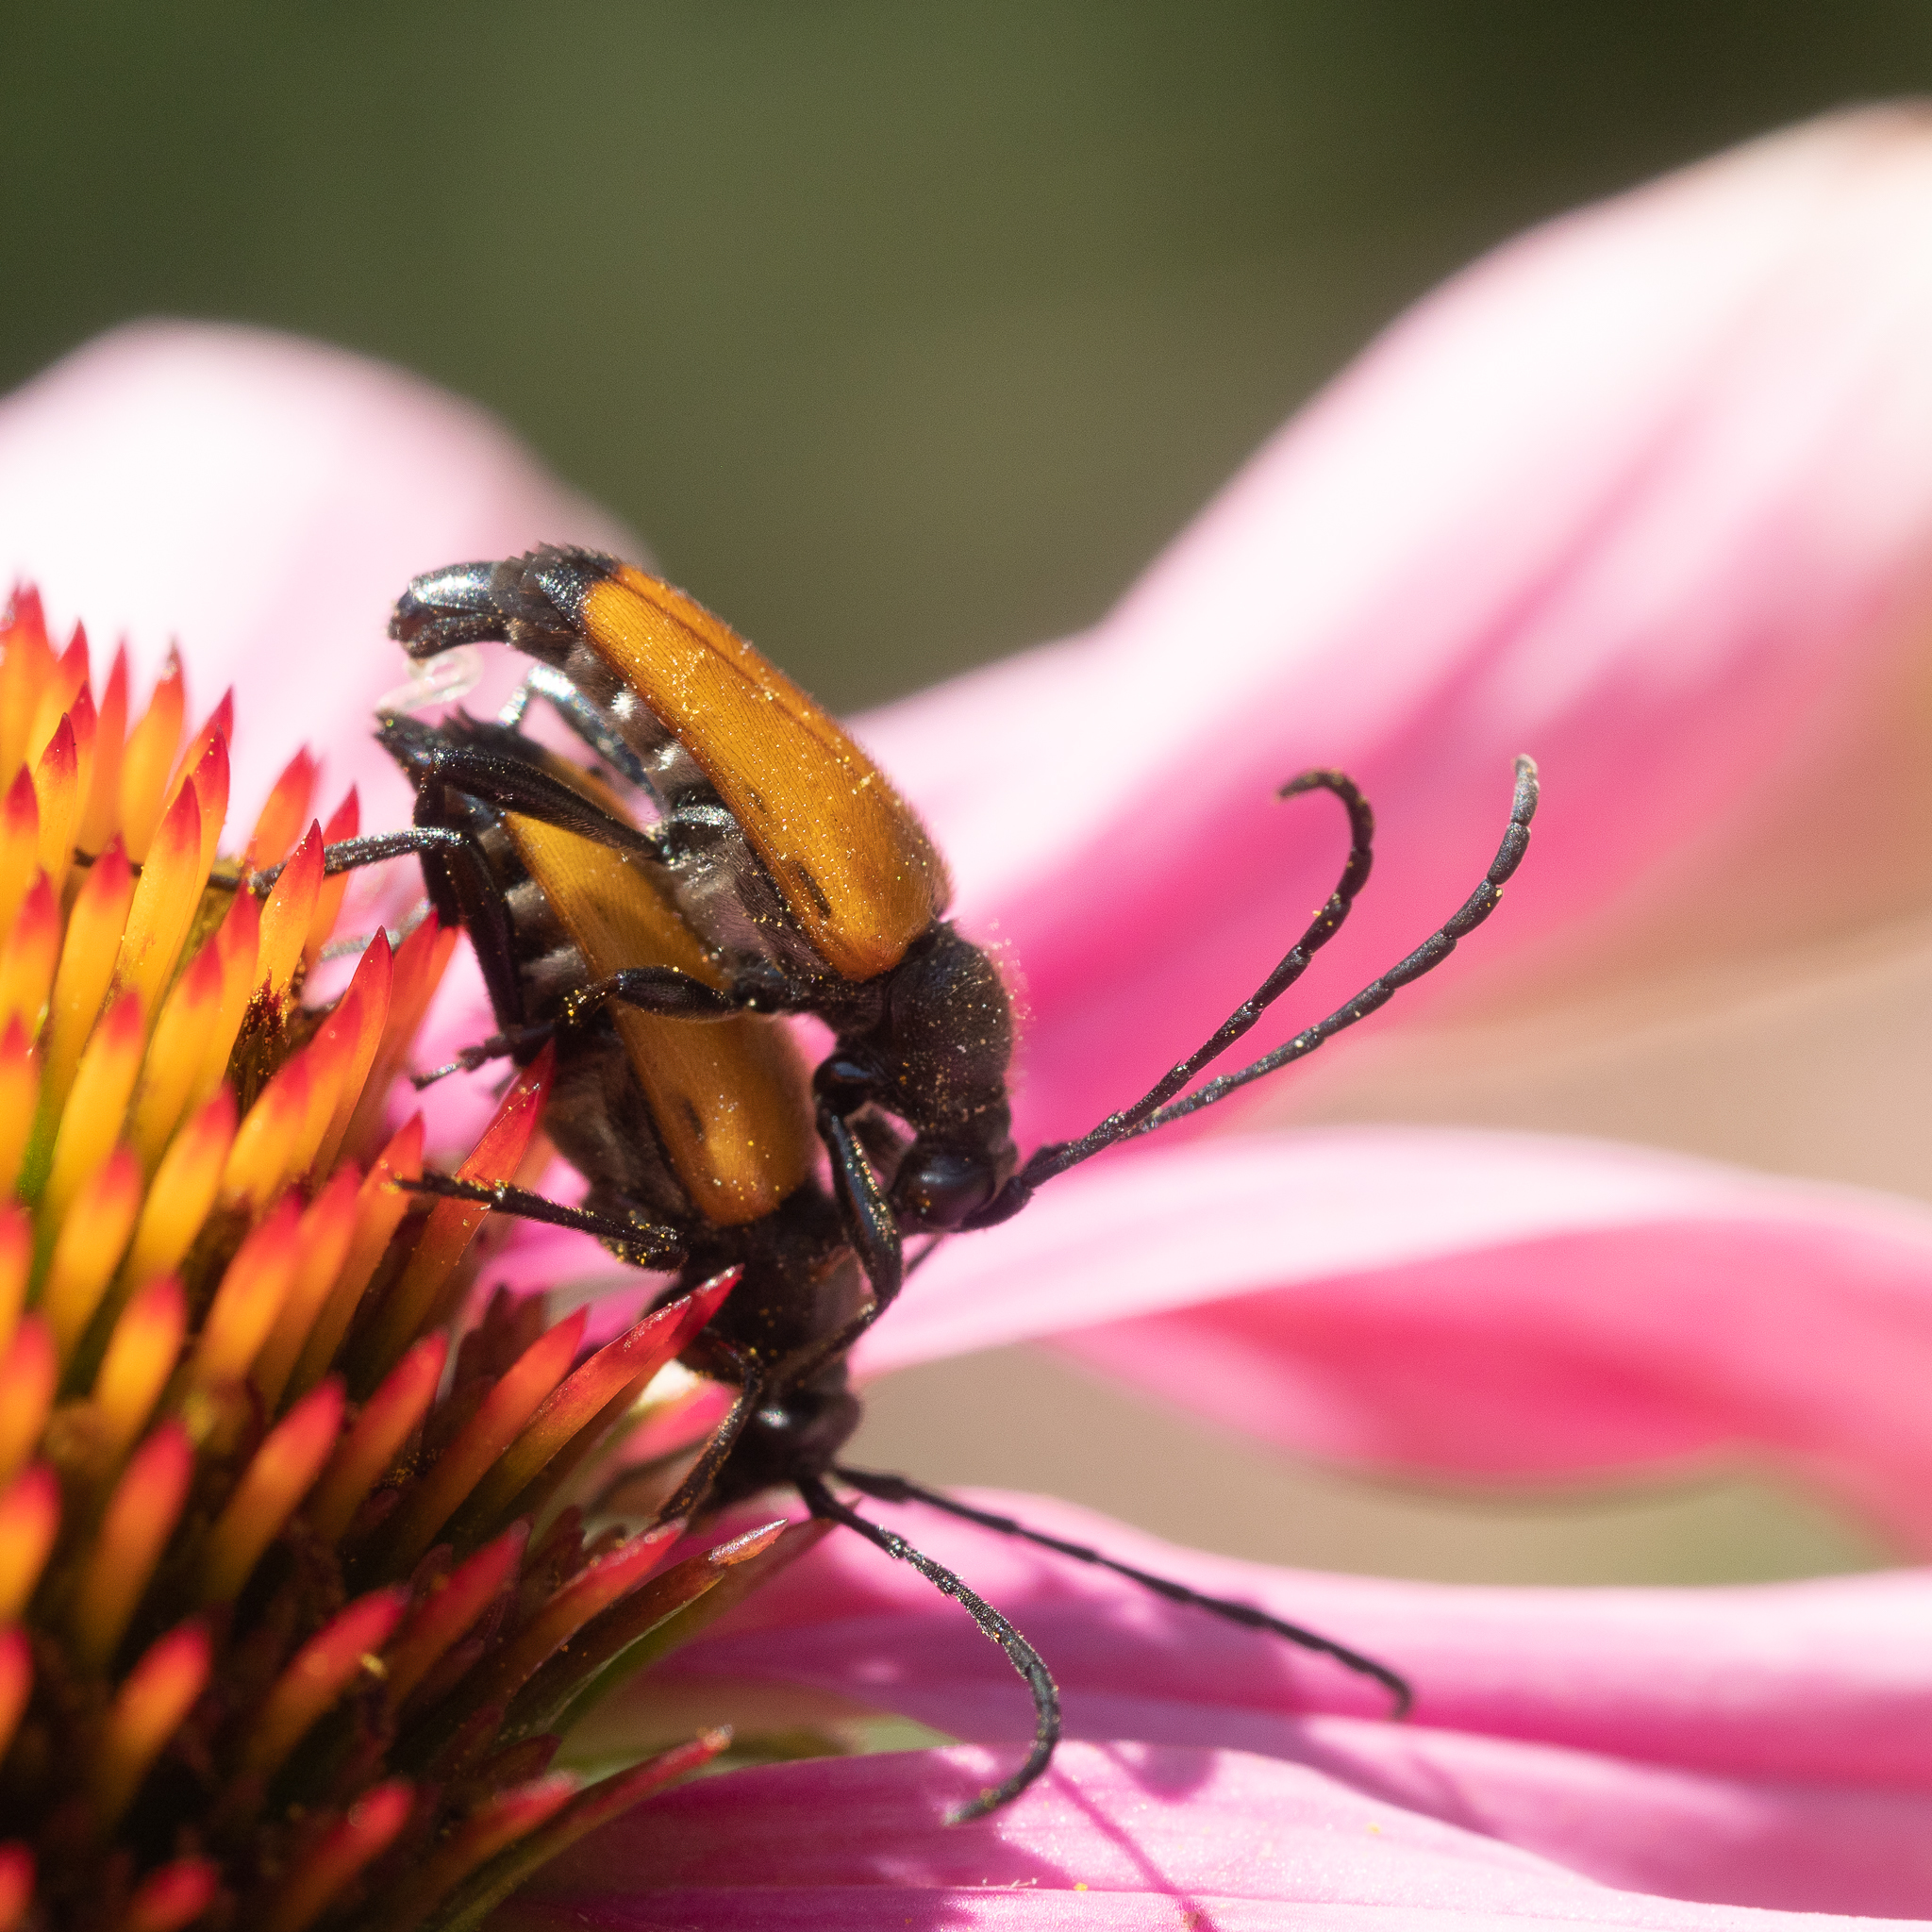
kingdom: Animalia
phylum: Arthropoda
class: Insecta
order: Coleoptera
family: Cerambycidae
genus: Paracorymbia
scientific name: Paracorymbia fulva
